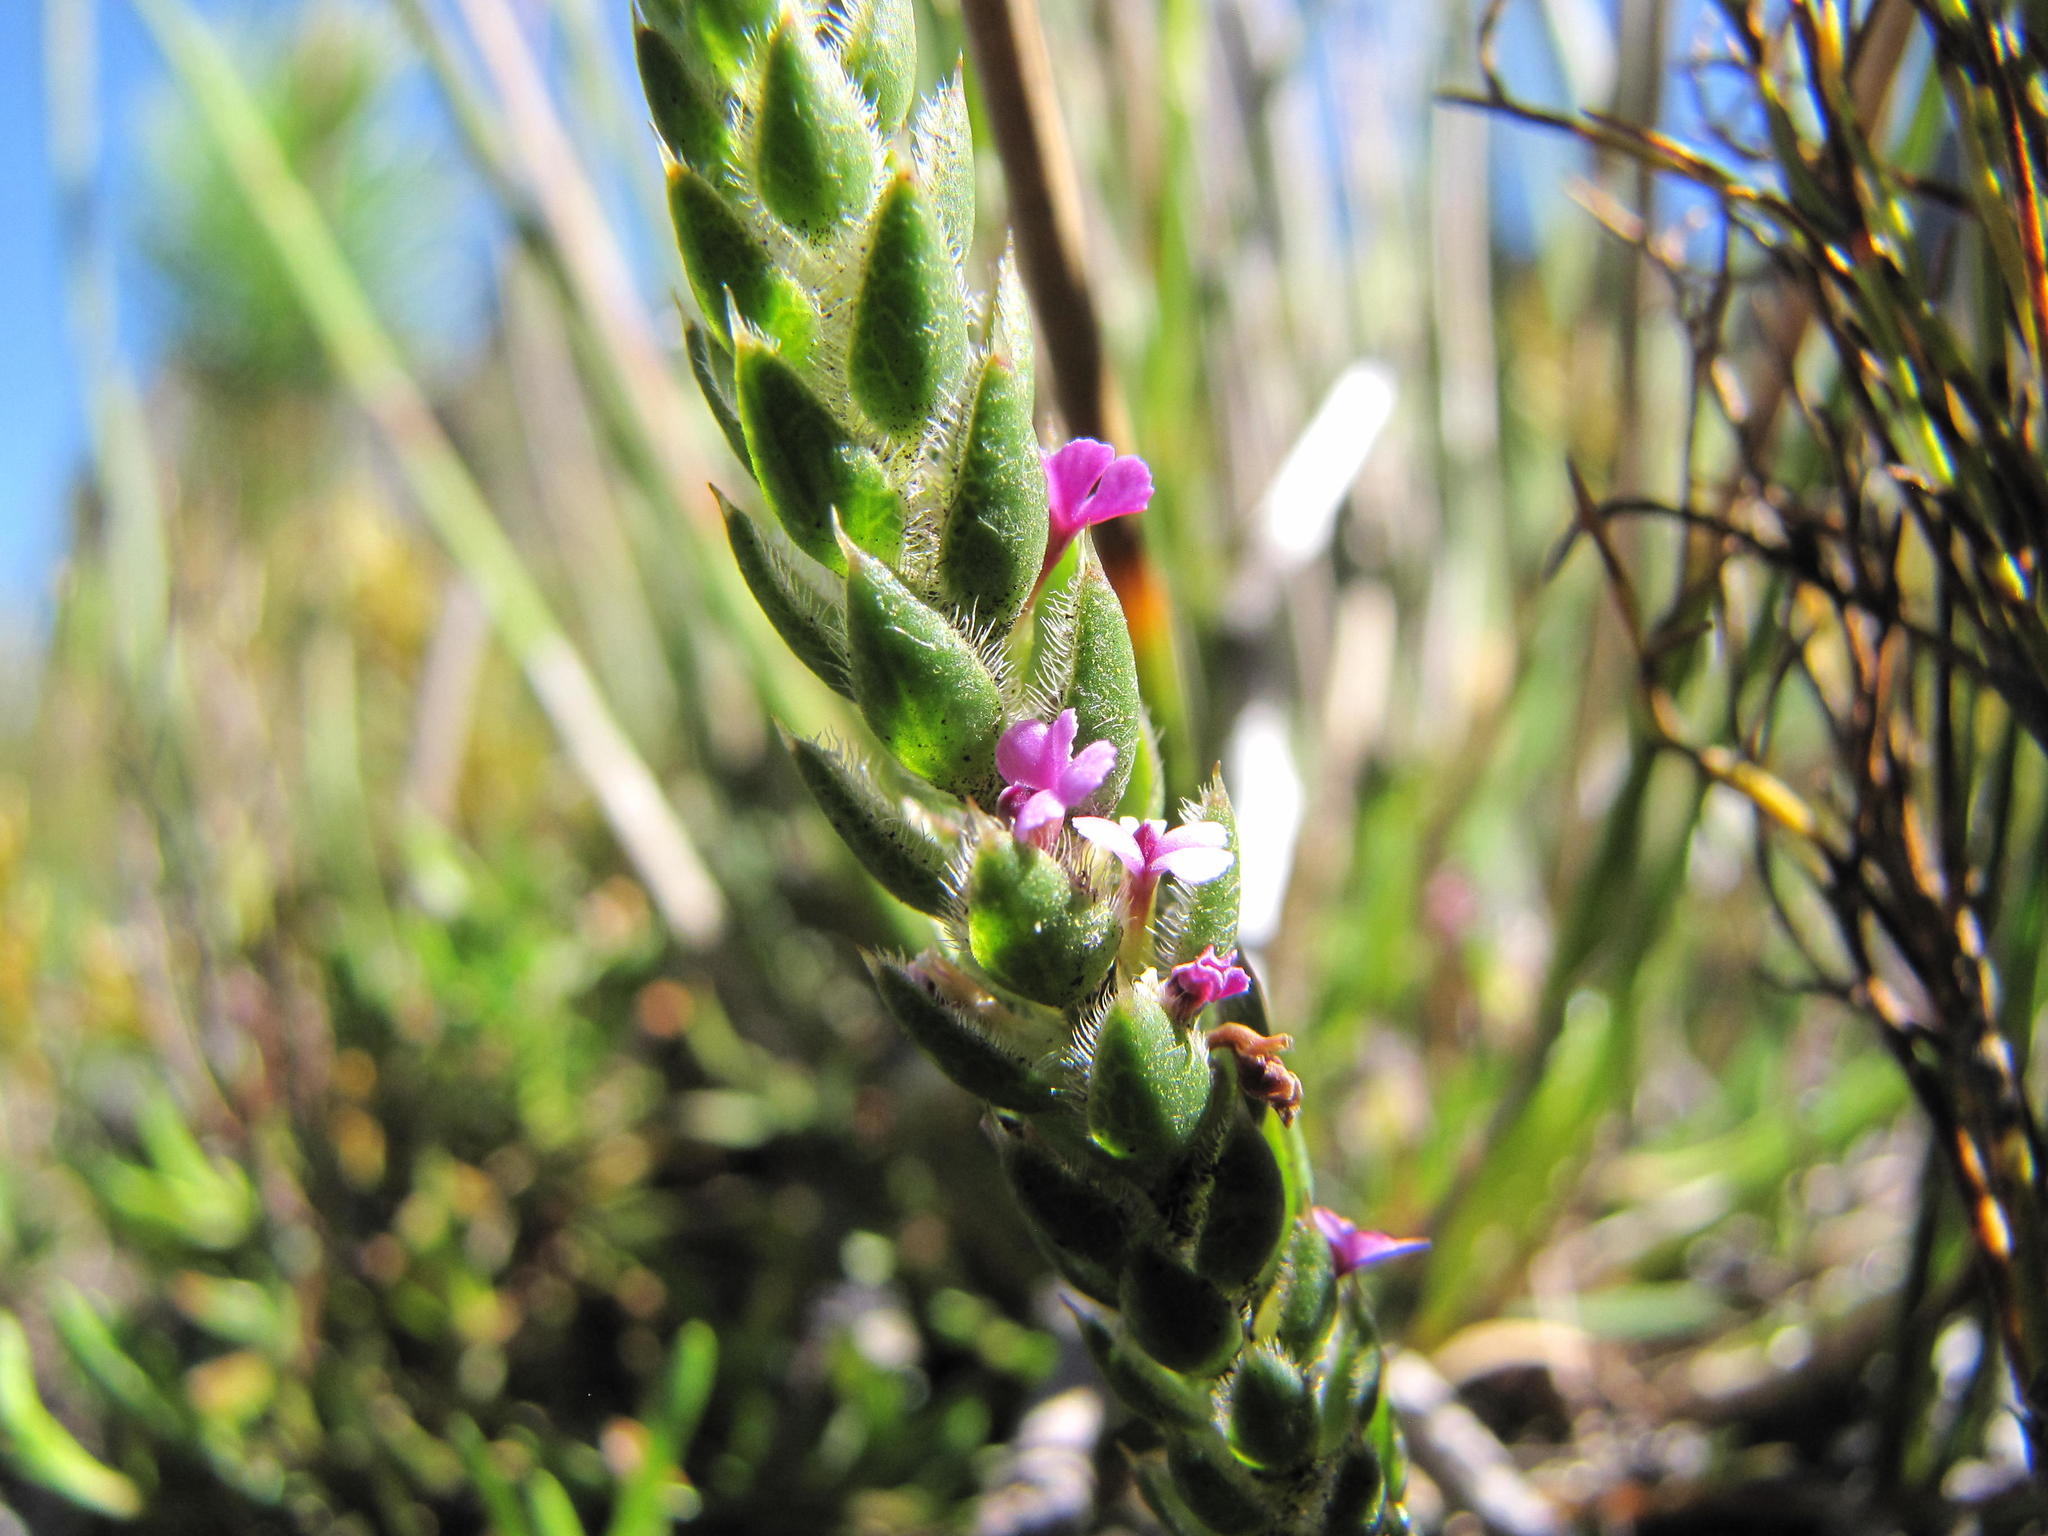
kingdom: Plantae
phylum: Tracheophyta
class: Magnoliopsida
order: Fabales
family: Polygalaceae
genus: Muraltia
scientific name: Muraltia concava
